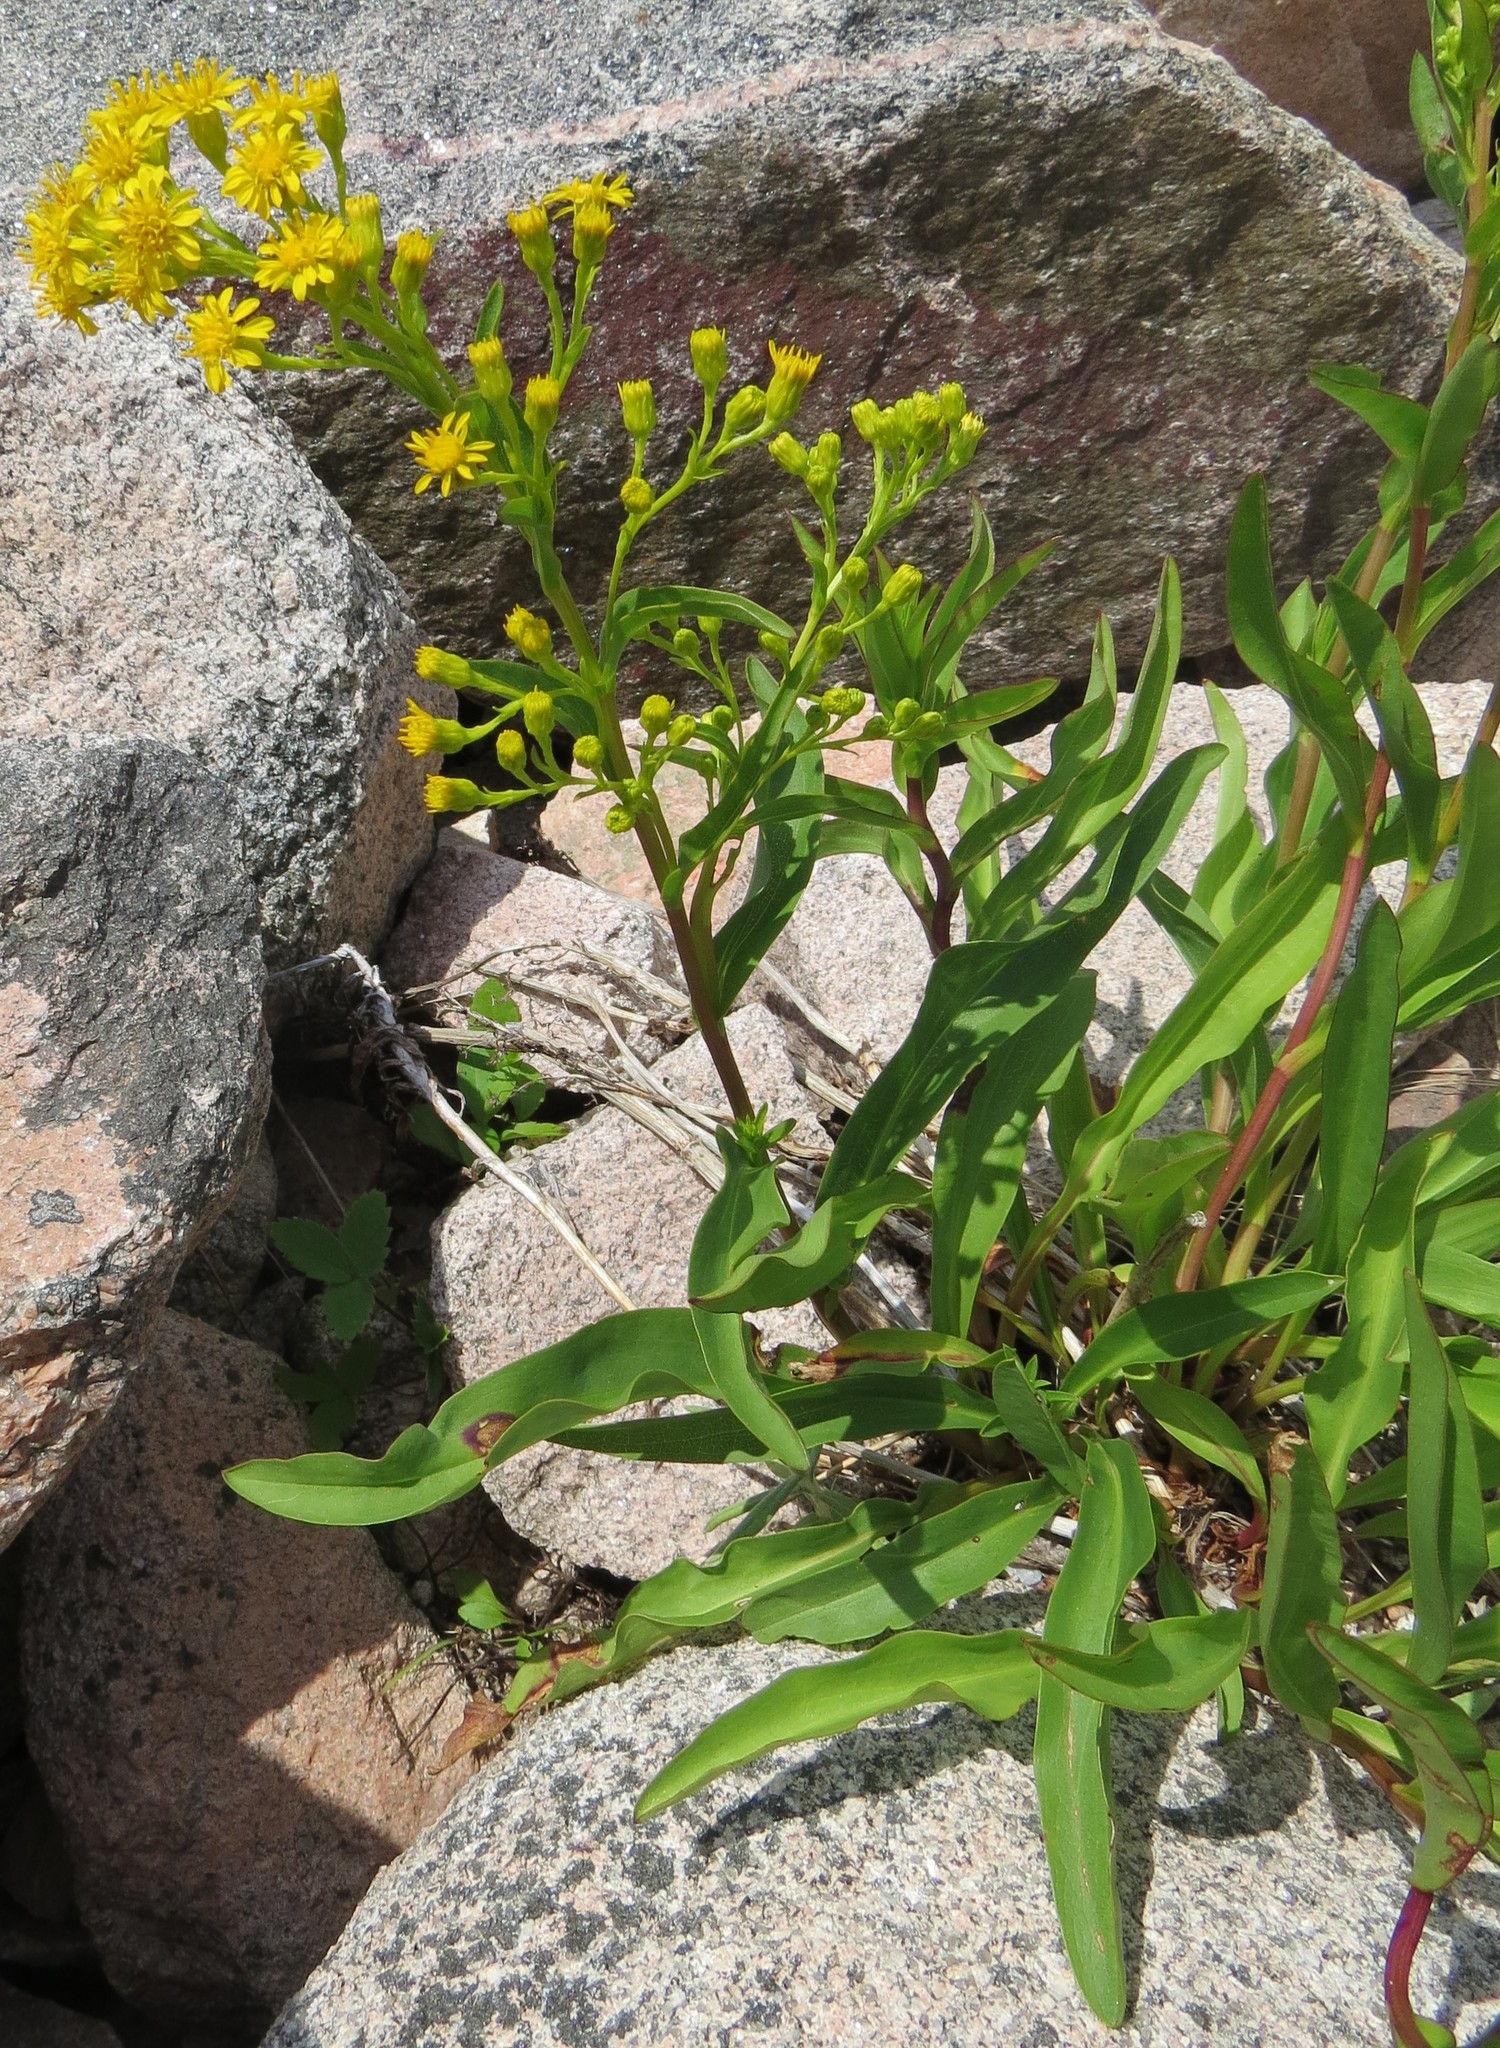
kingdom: Plantae
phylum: Tracheophyta
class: Magnoliopsida
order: Asterales
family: Asteraceae
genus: Solidago
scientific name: Solidago sempervirens
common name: Salt-marsh goldenrod
